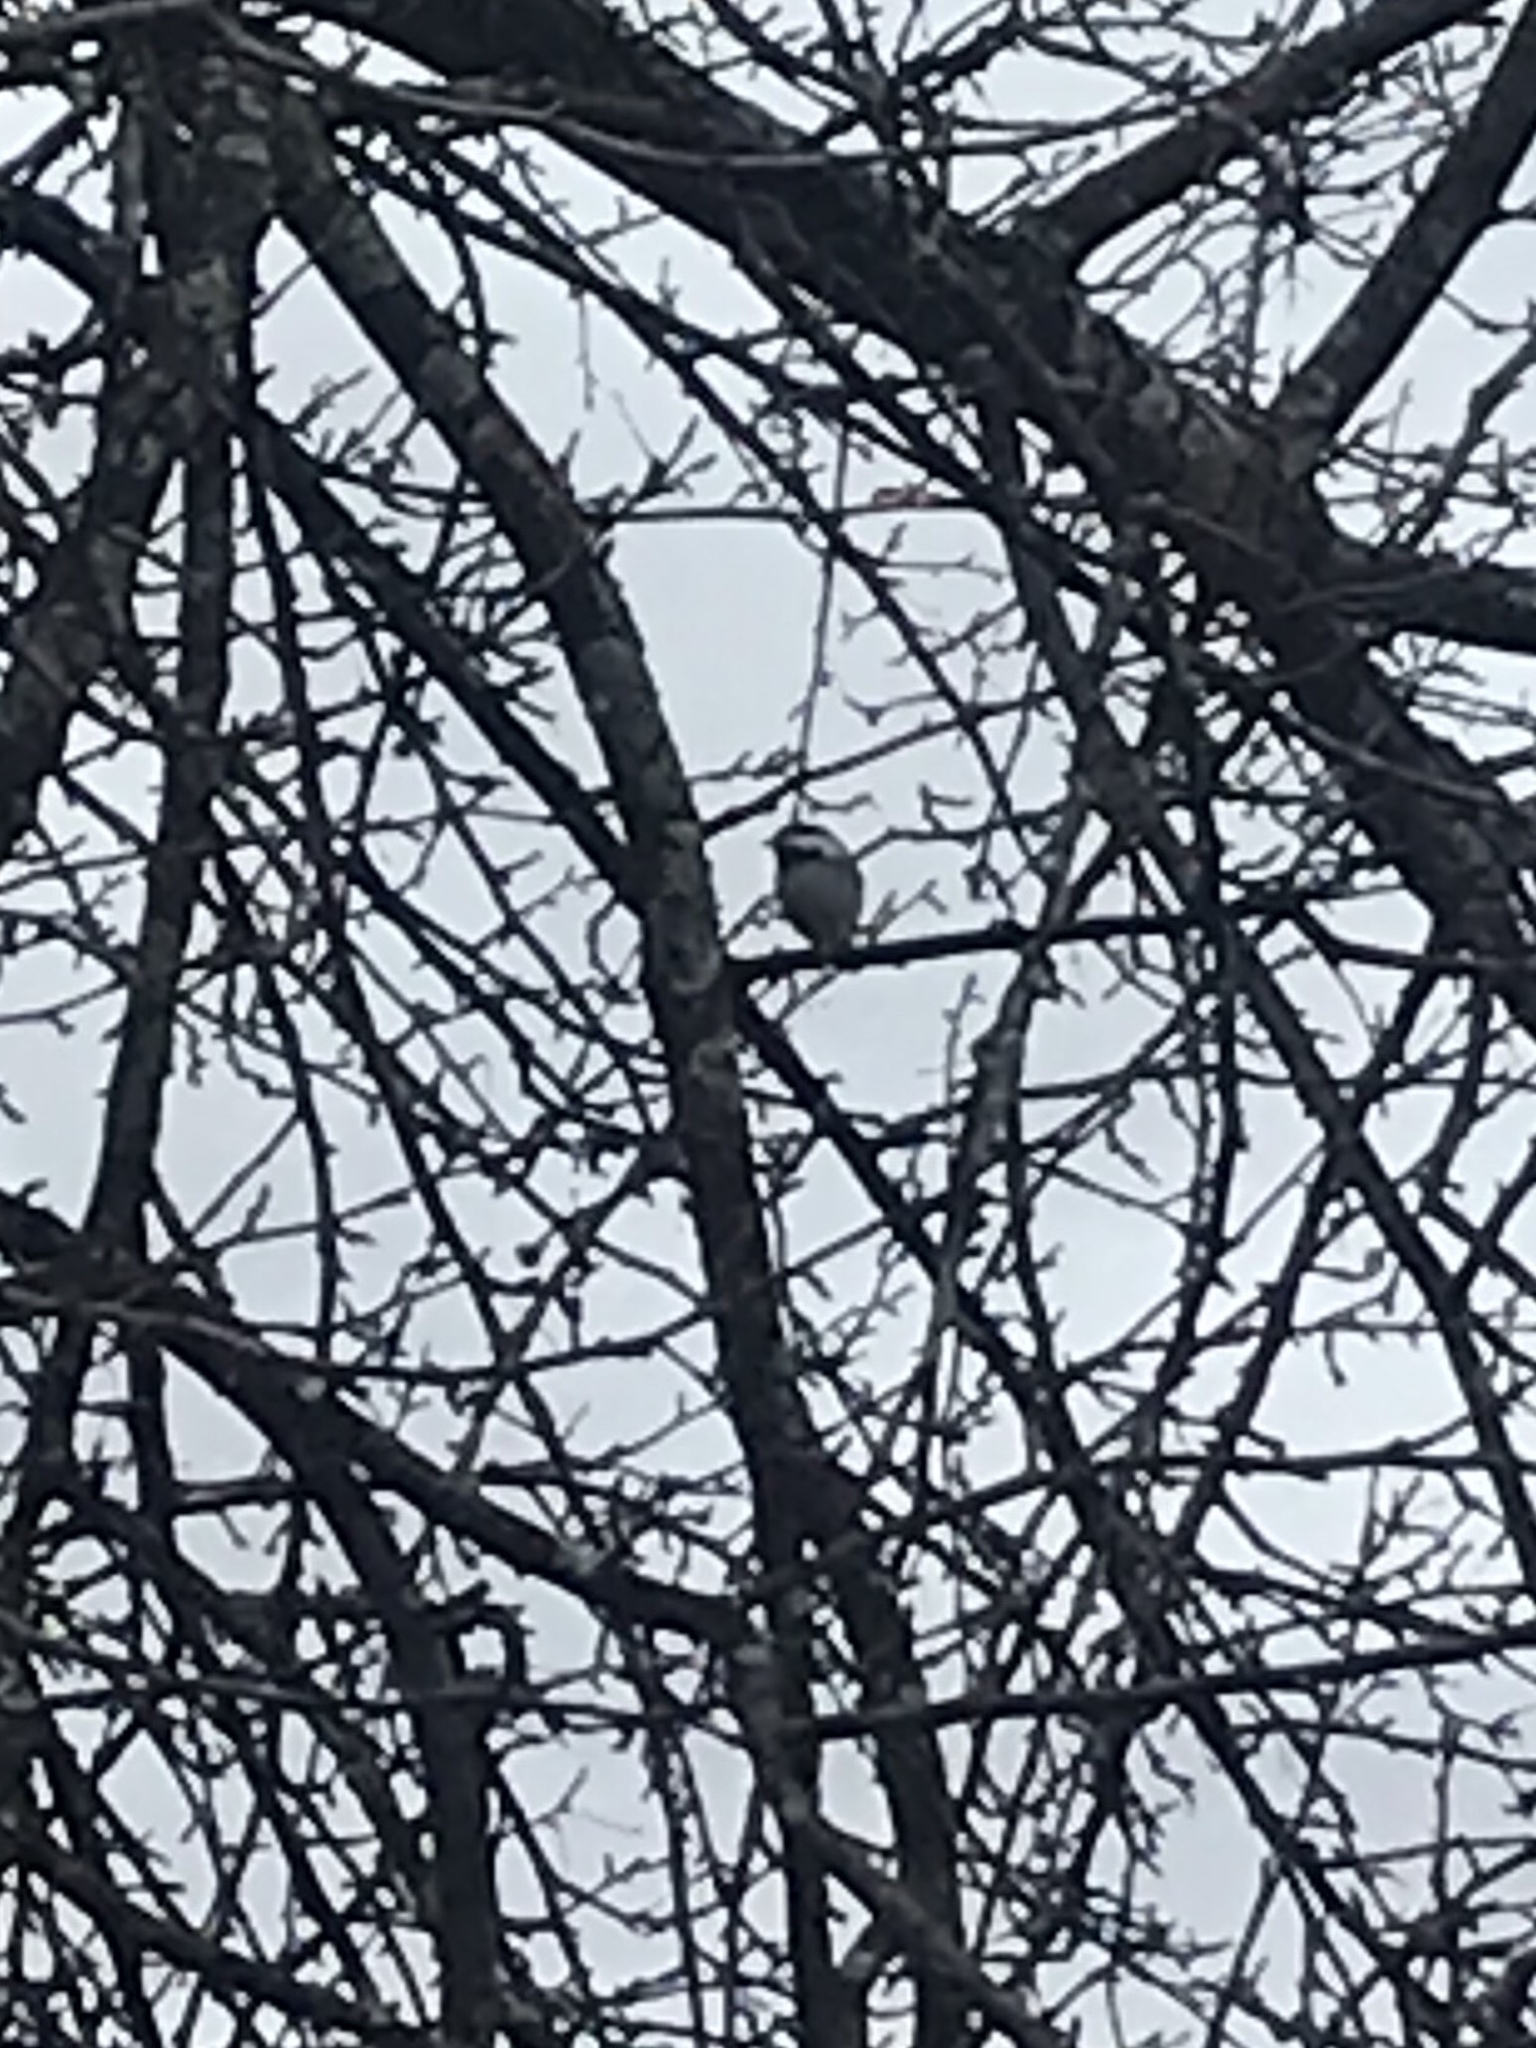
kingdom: Animalia
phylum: Chordata
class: Aves
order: Passeriformes
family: Paridae
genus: Poecile
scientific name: Poecile atricapillus
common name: Black-capped chickadee
